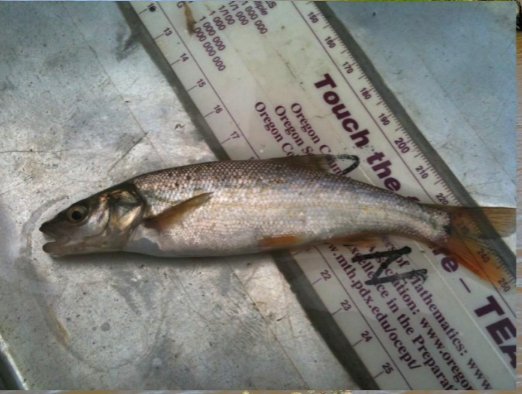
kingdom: Animalia
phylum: Chordata
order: Cypriniformes
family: Cyprinidae
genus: Ptychocheilus
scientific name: Ptychocheilus oregonensis
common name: Northern pikeminnow
